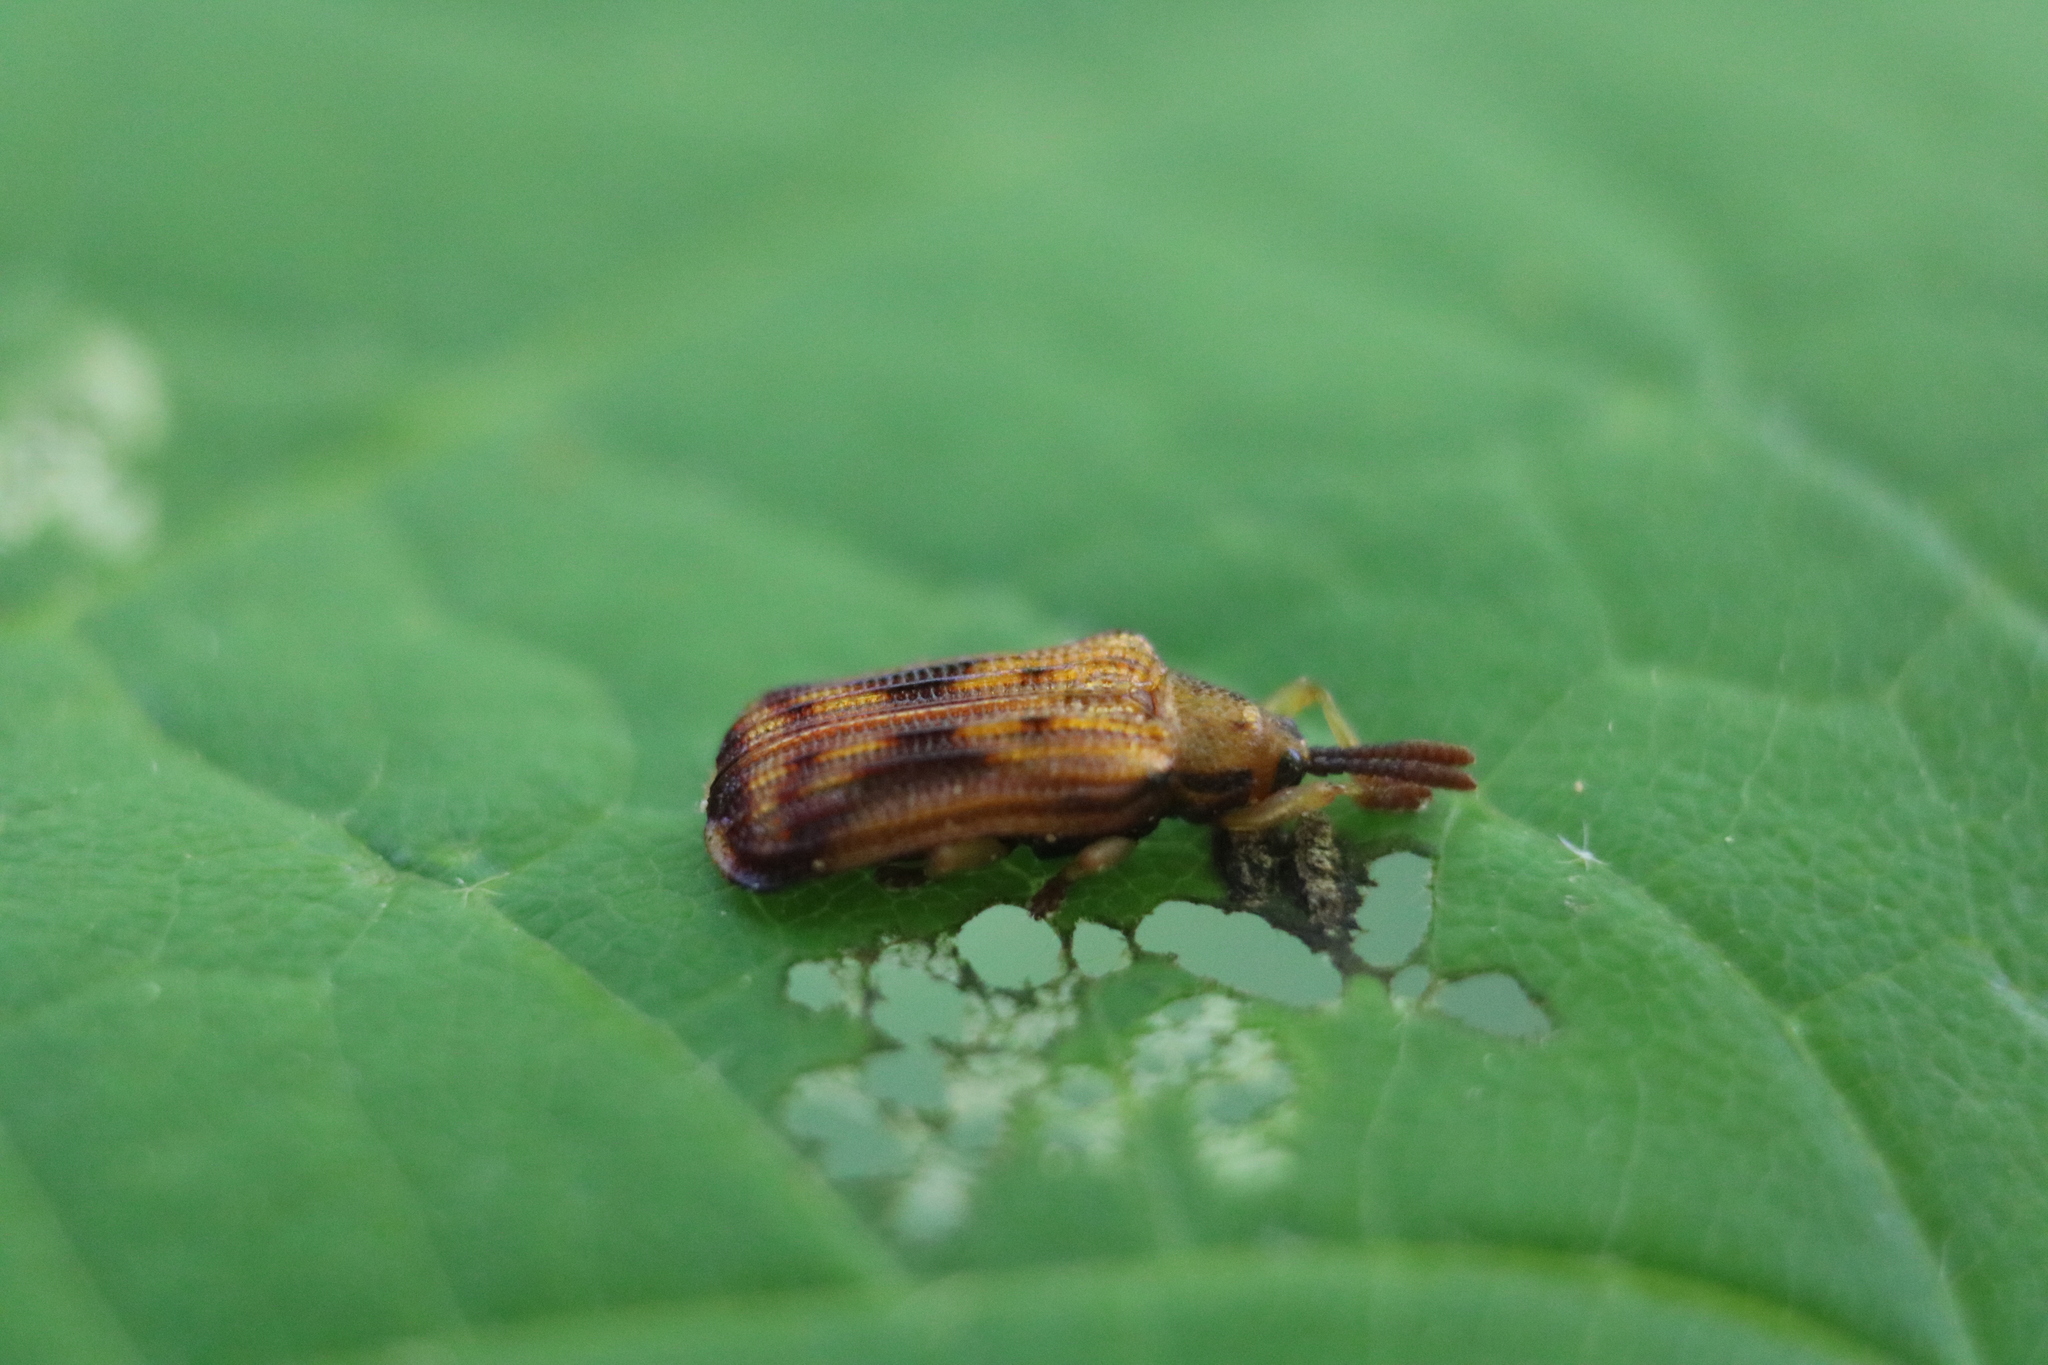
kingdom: Animalia
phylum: Arthropoda
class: Insecta
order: Coleoptera
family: Chrysomelidae
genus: Baliosus
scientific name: Baliosus nervosus
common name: Basswood leaf miner
